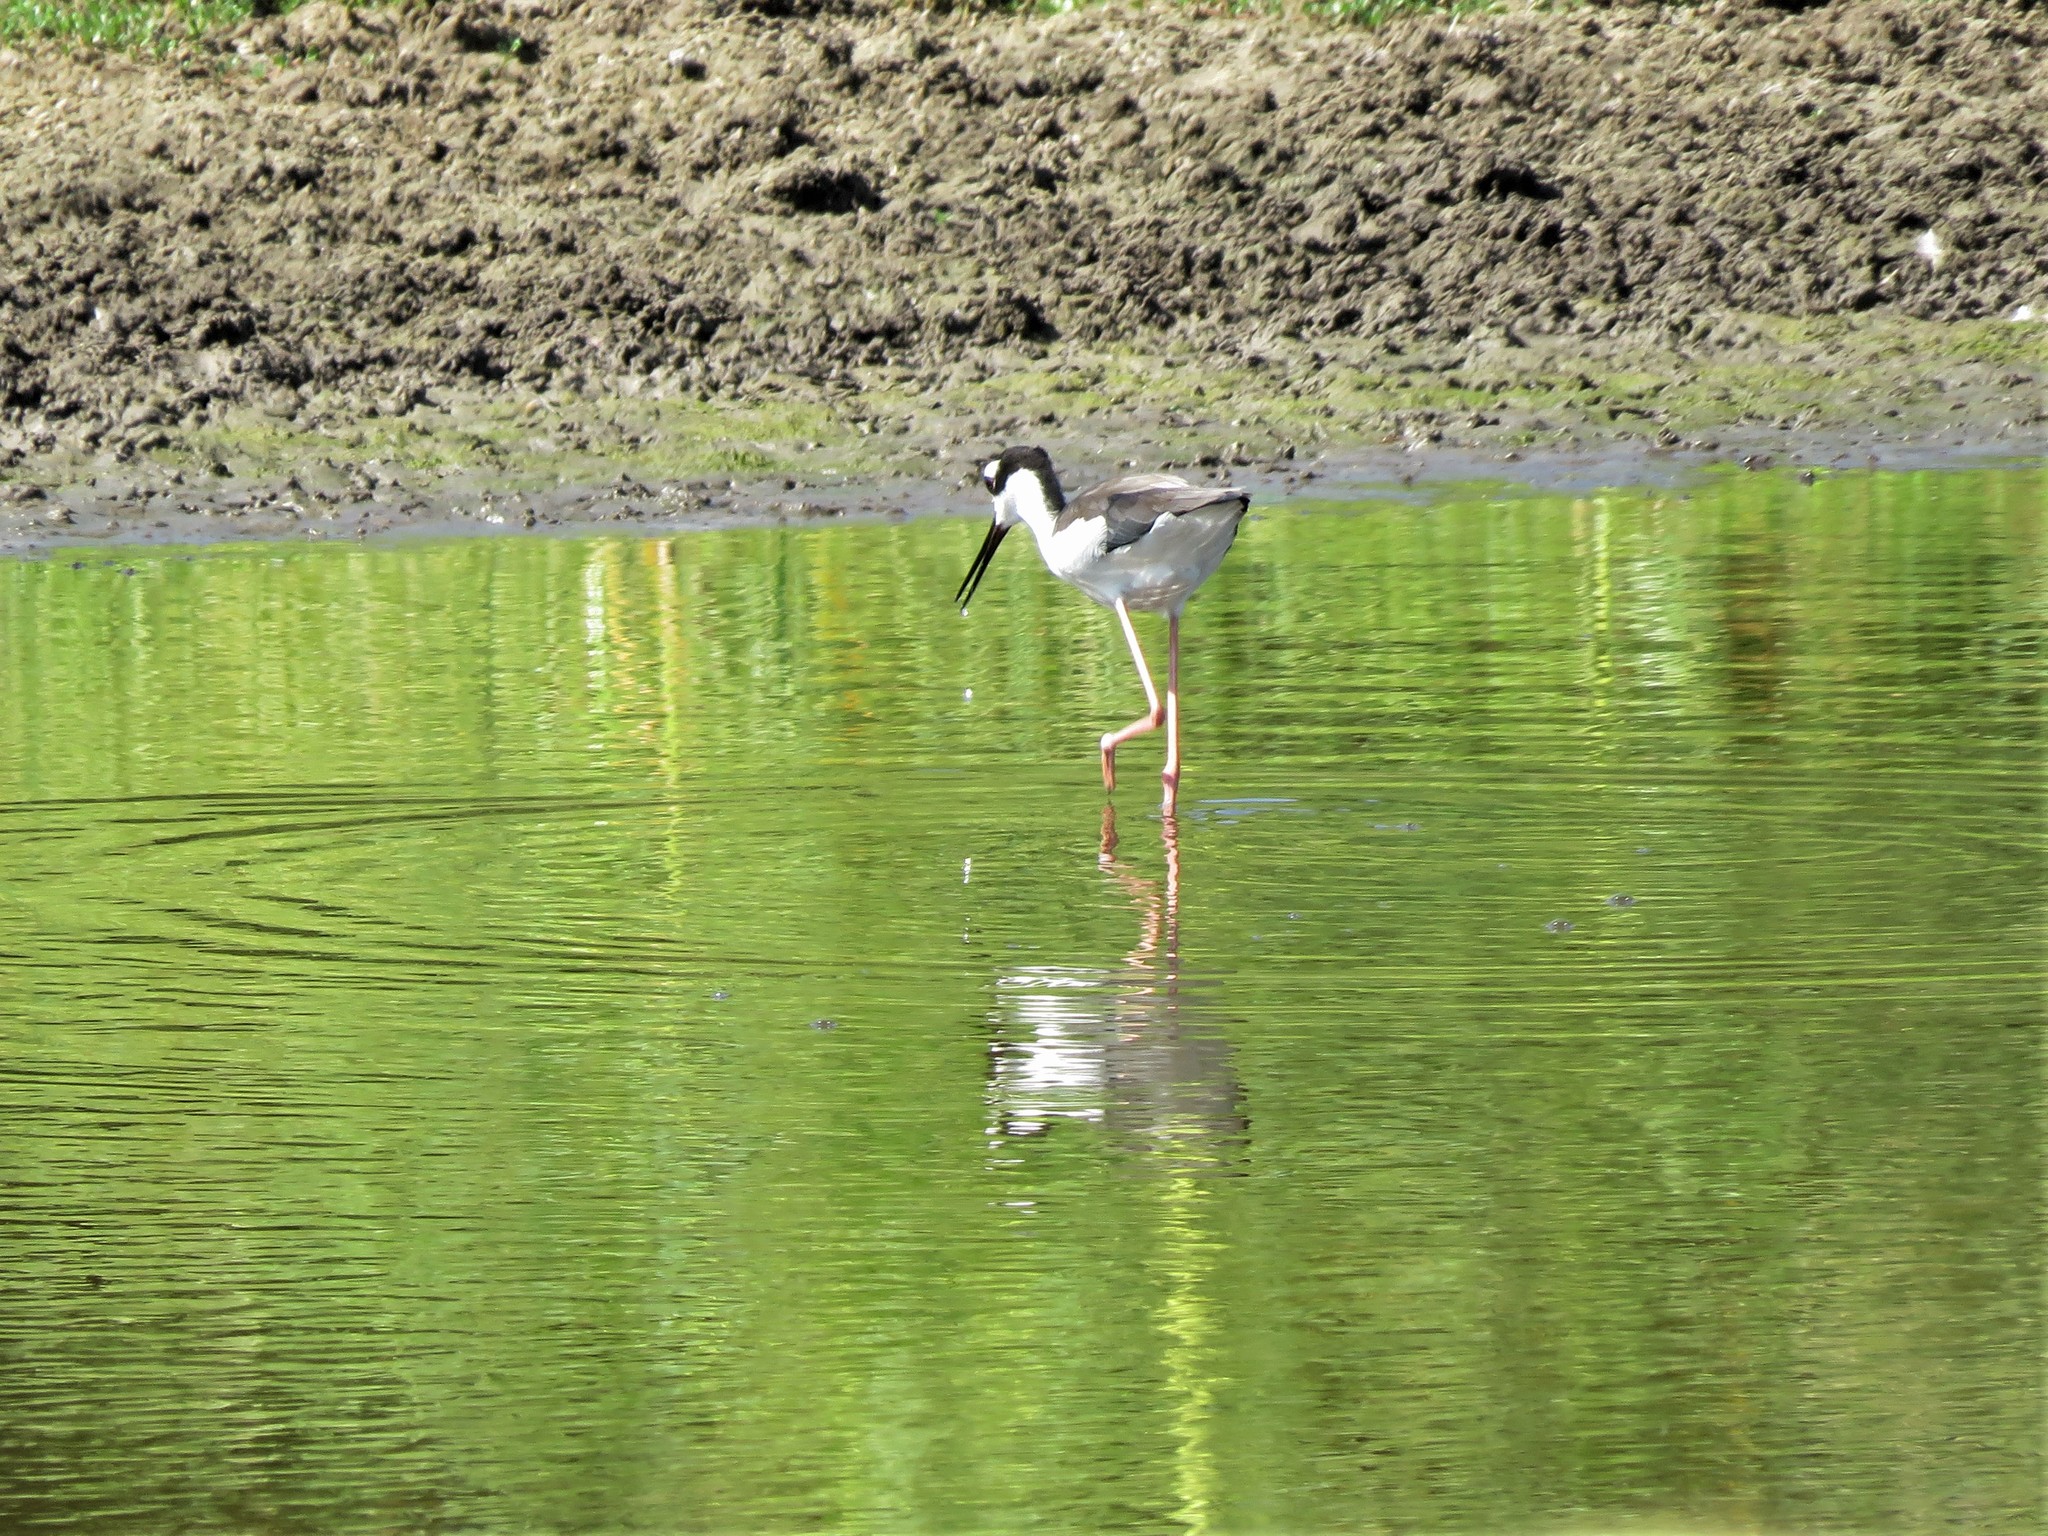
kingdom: Animalia
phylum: Chordata
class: Aves
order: Charadriiformes
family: Recurvirostridae
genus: Himantopus
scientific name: Himantopus mexicanus
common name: Black-necked stilt
